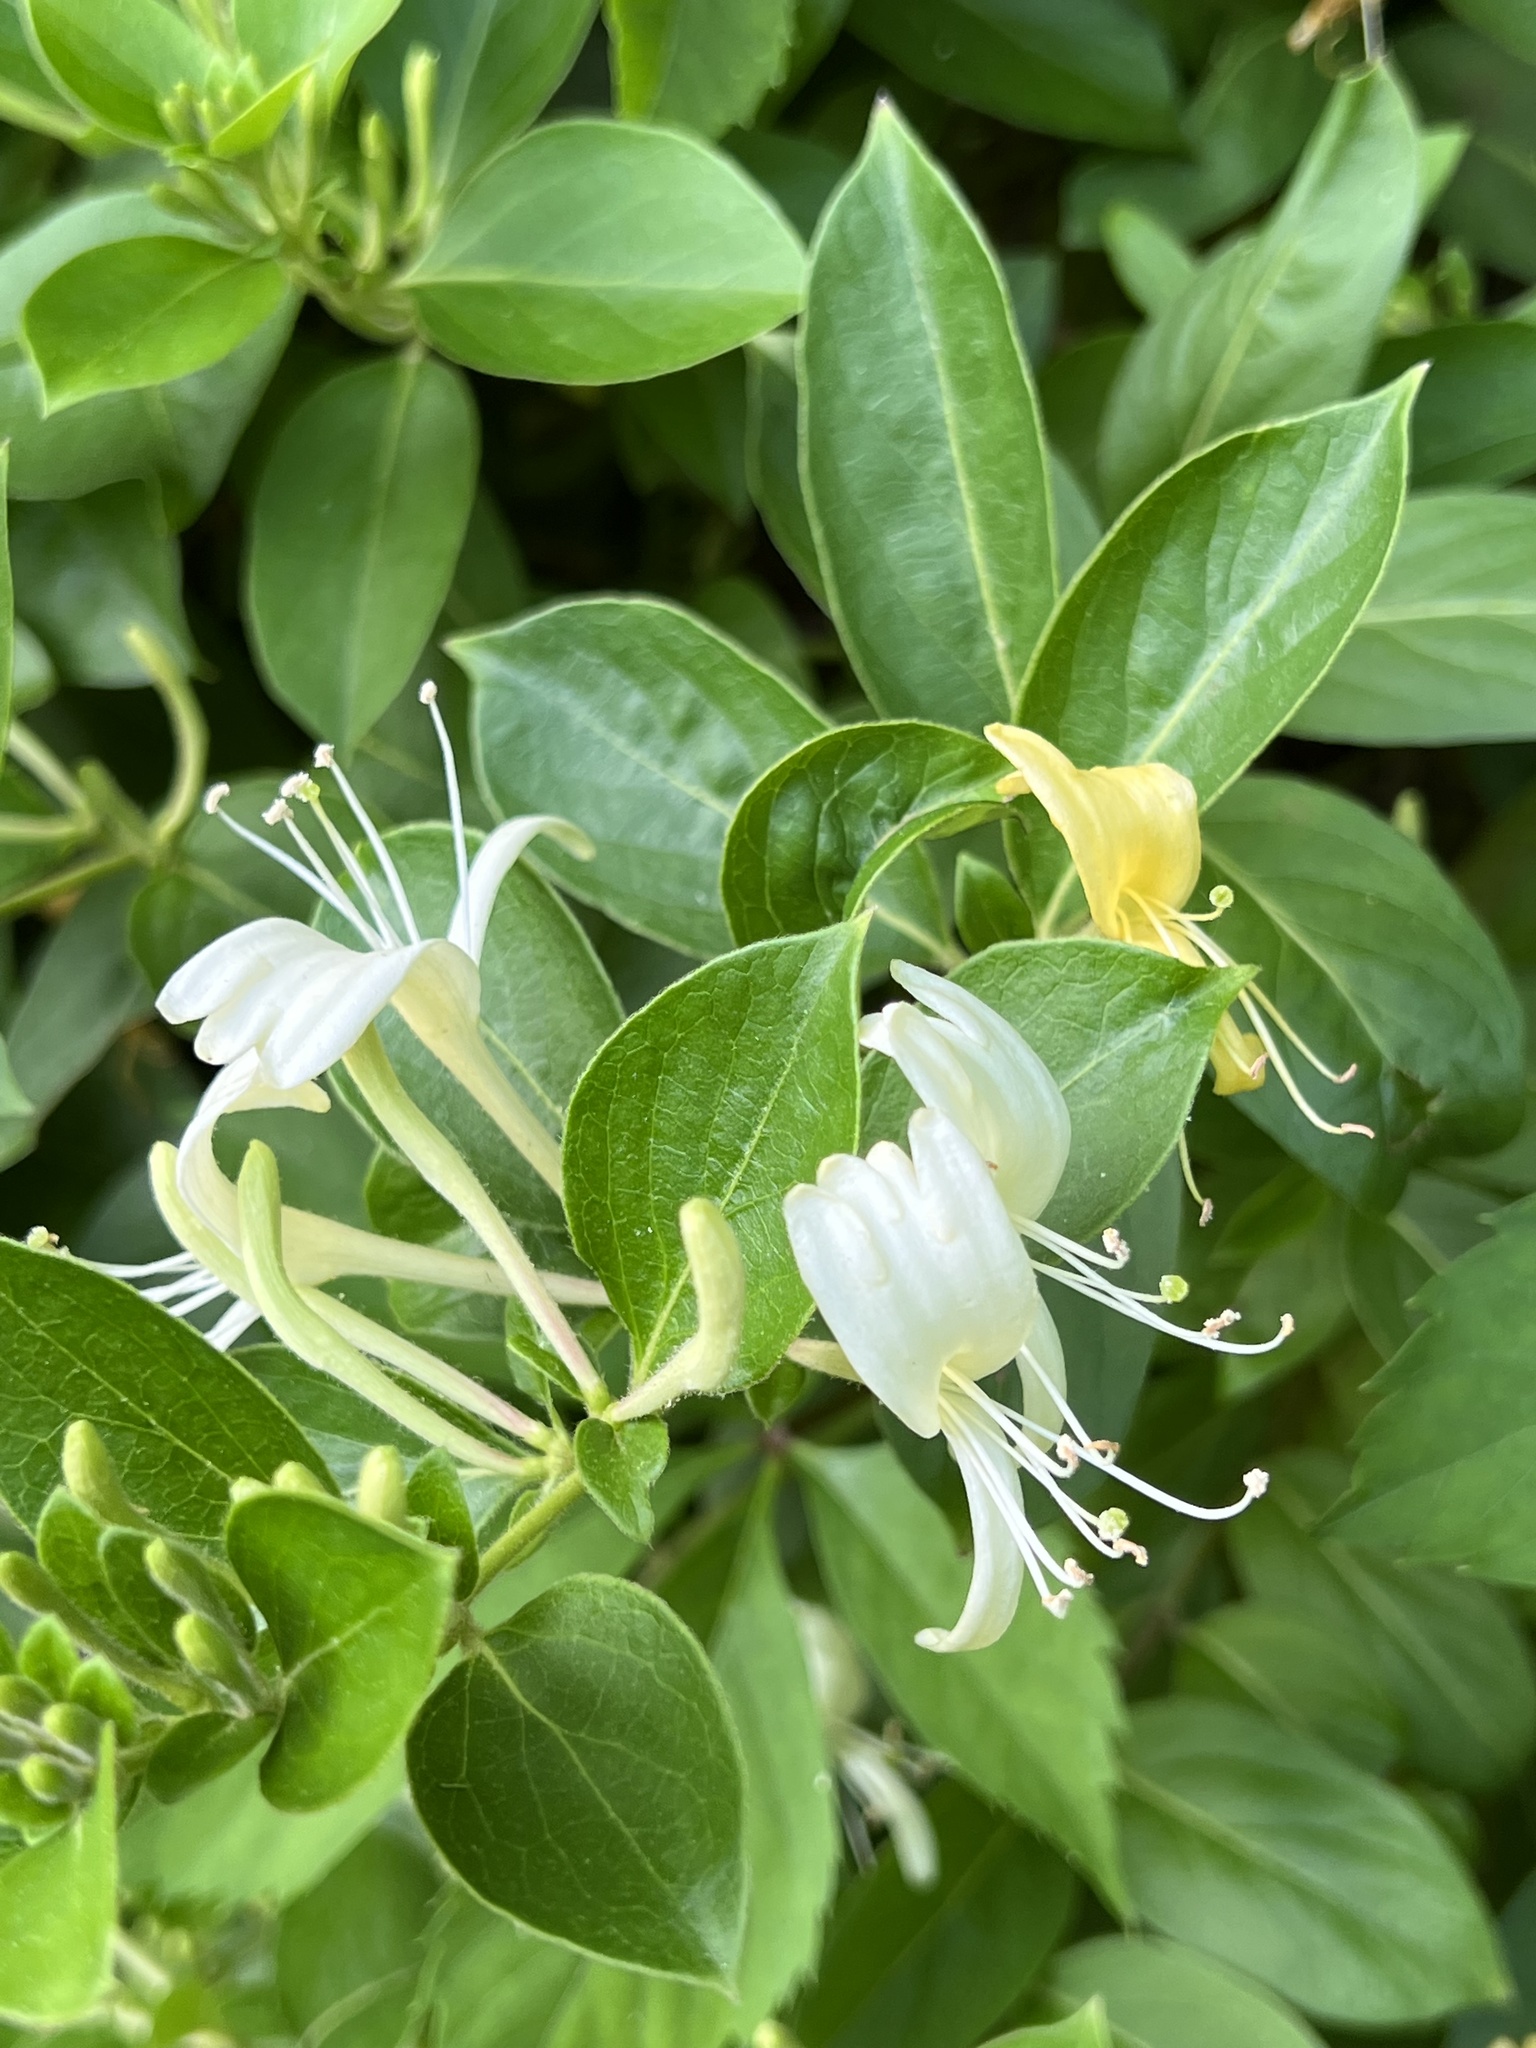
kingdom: Plantae
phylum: Tracheophyta
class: Magnoliopsida
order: Dipsacales
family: Caprifoliaceae
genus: Lonicera
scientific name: Lonicera japonica
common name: Japanese honeysuckle
